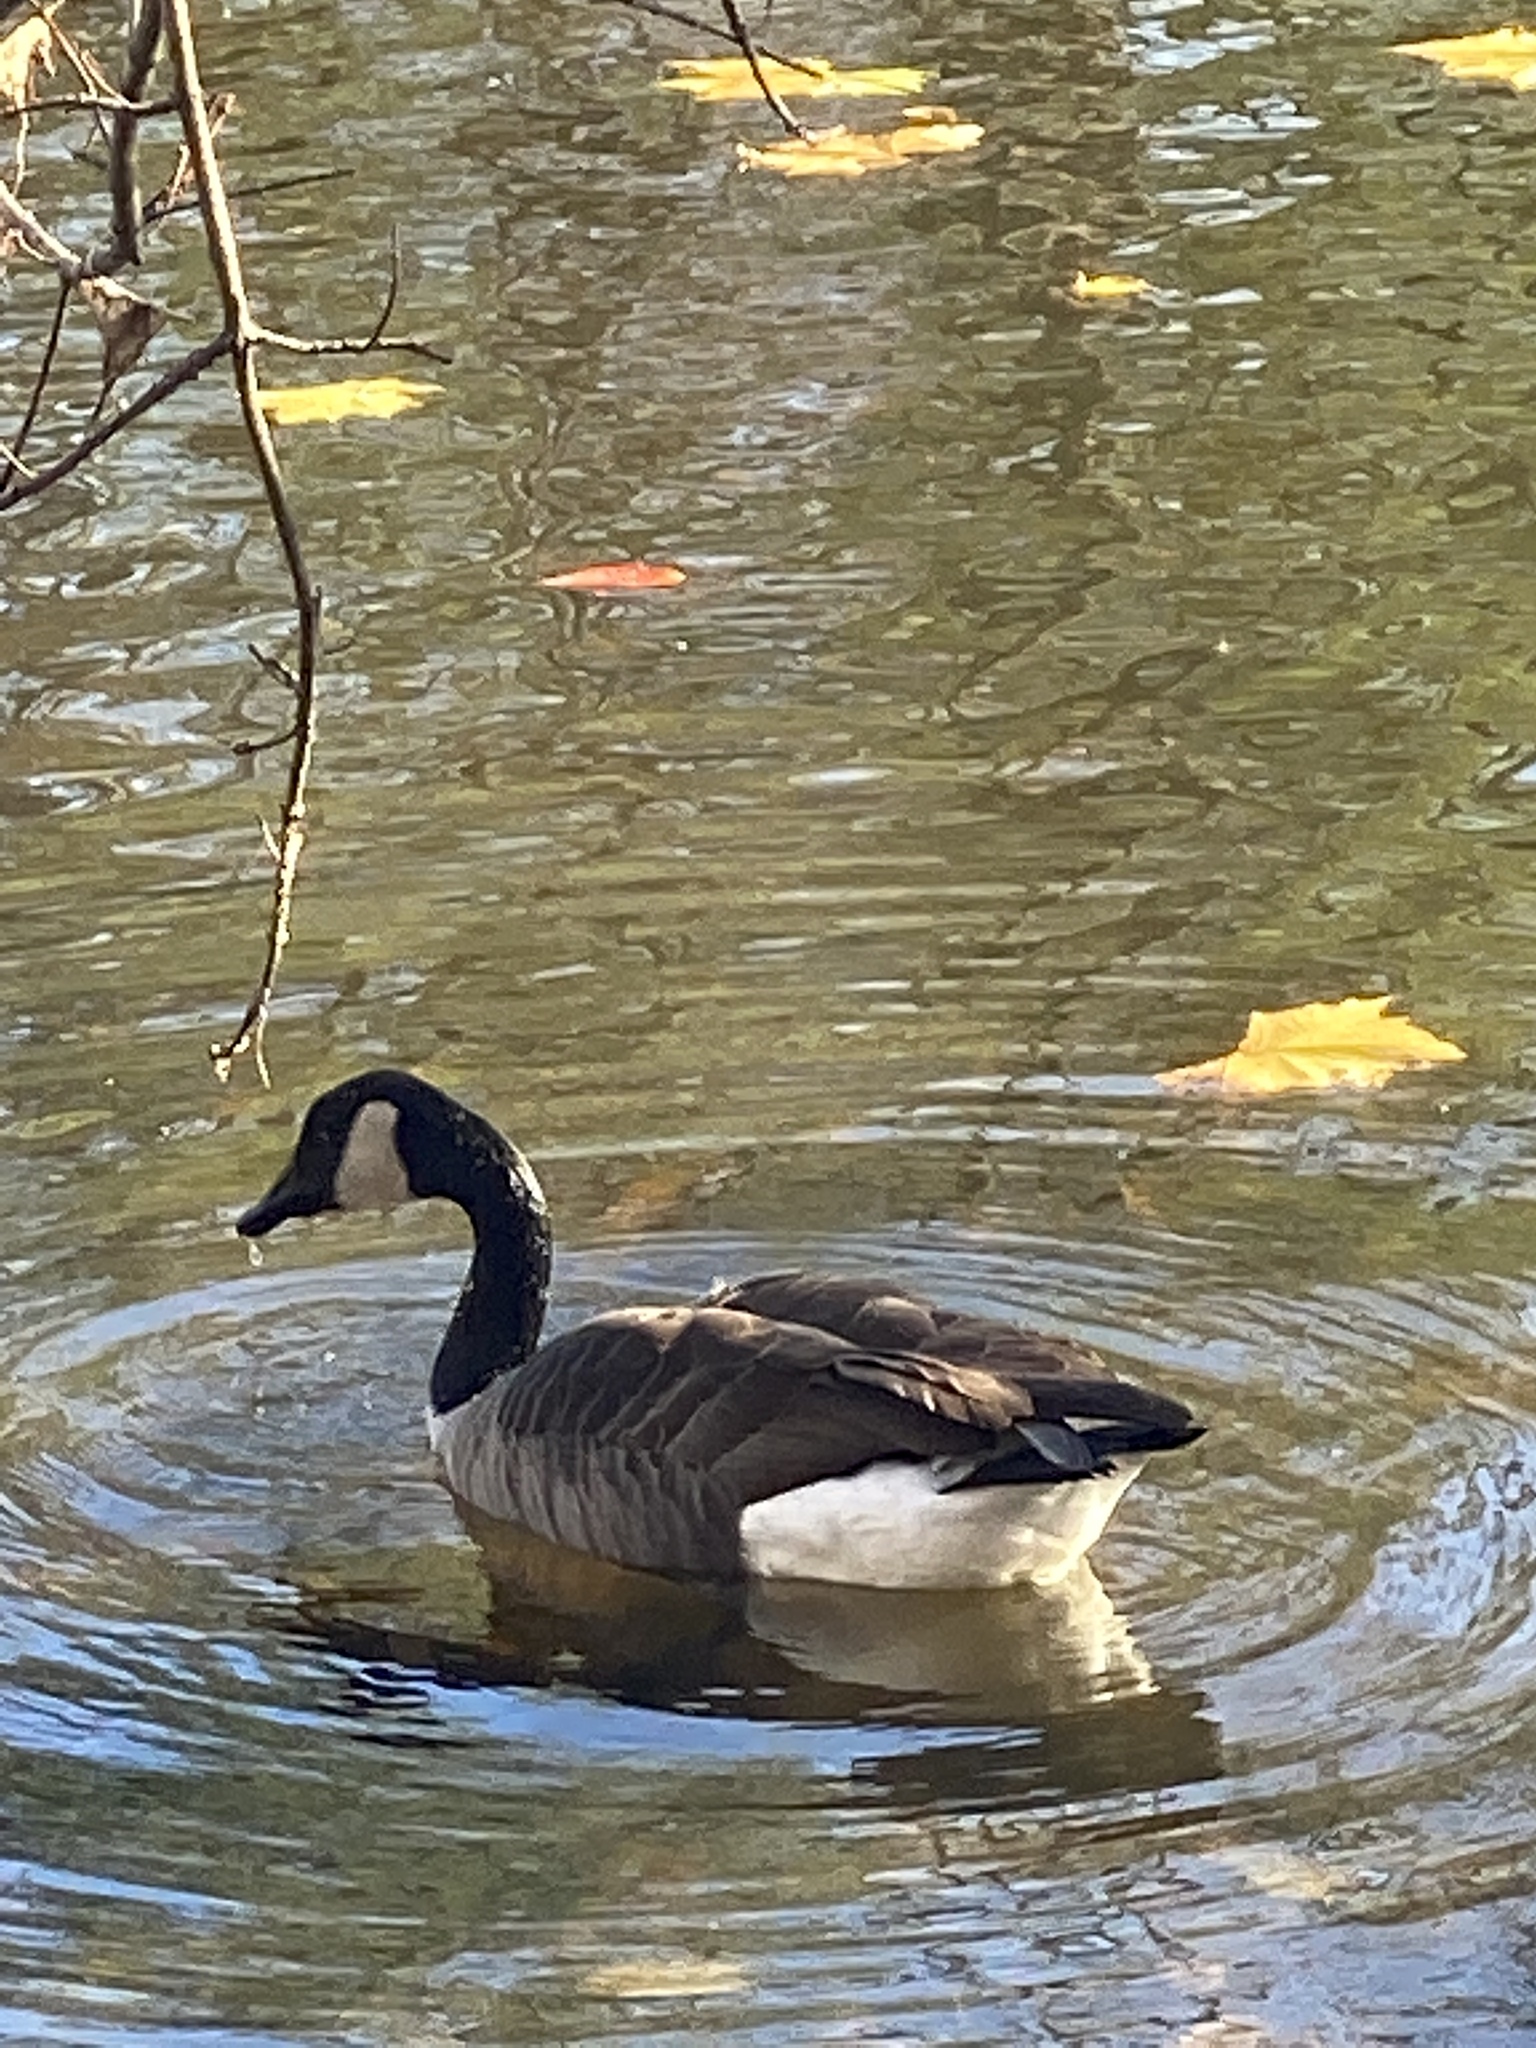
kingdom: Animalia
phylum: Chordata
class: Aves
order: Anseriformes
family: Anatidae
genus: Branta
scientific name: Branta canadensis
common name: Canada goose
